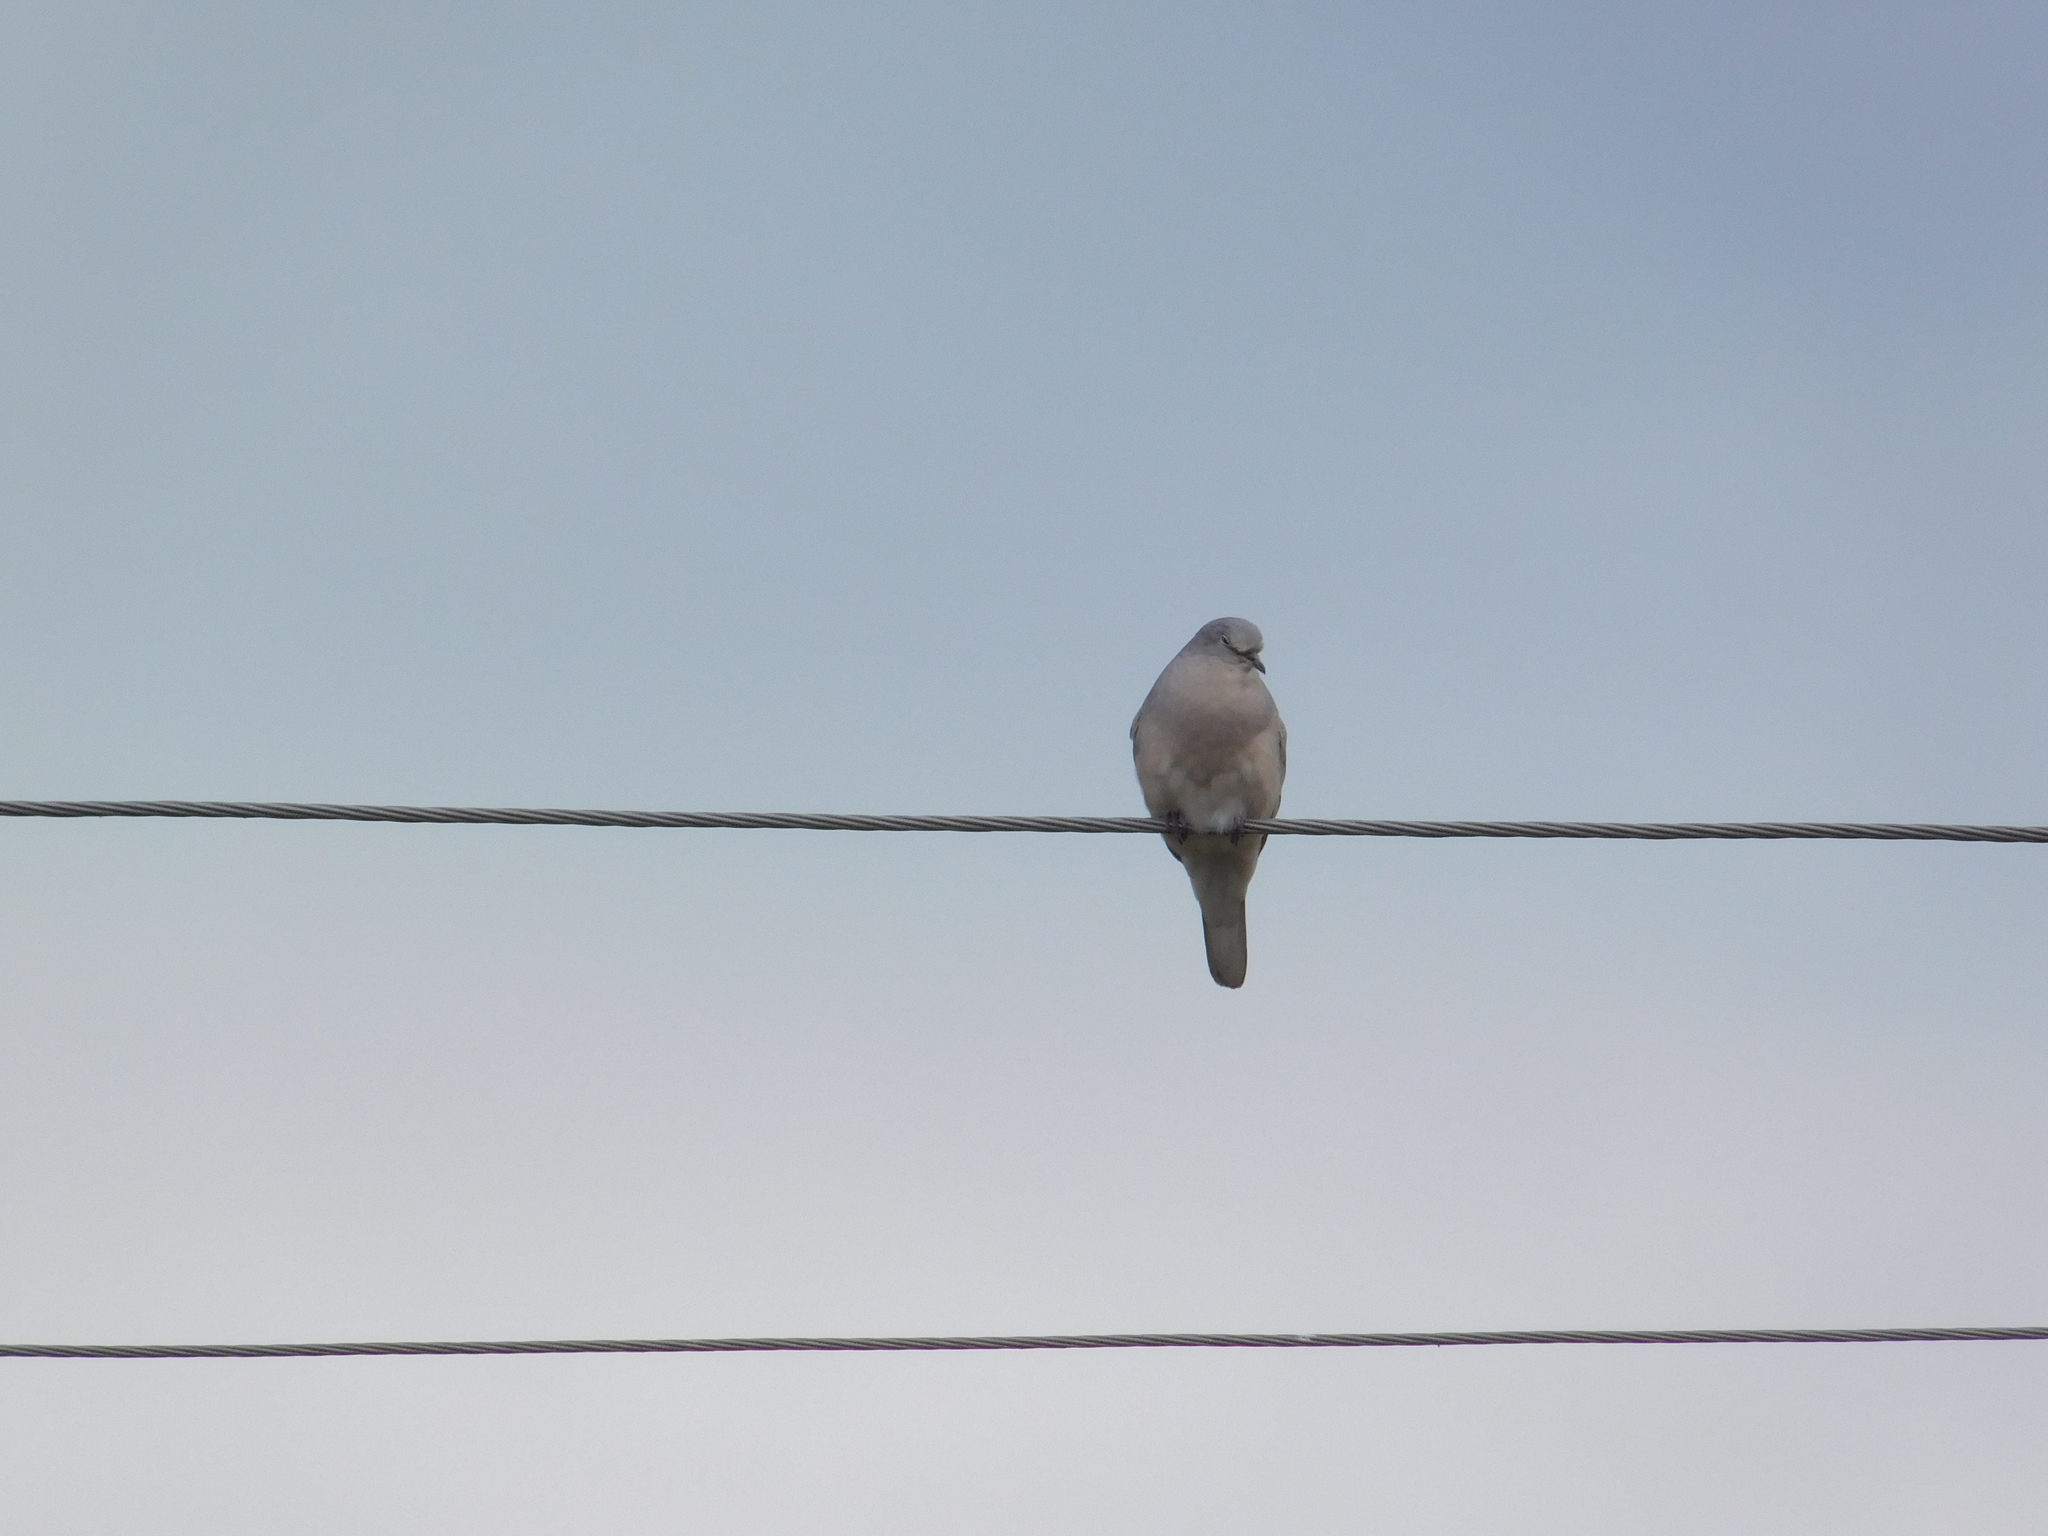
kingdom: Animalia
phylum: Chordata
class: Aves
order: Columbiformes
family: Columbidae
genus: Columbina
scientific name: Columbina picui
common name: Picui ground dove
